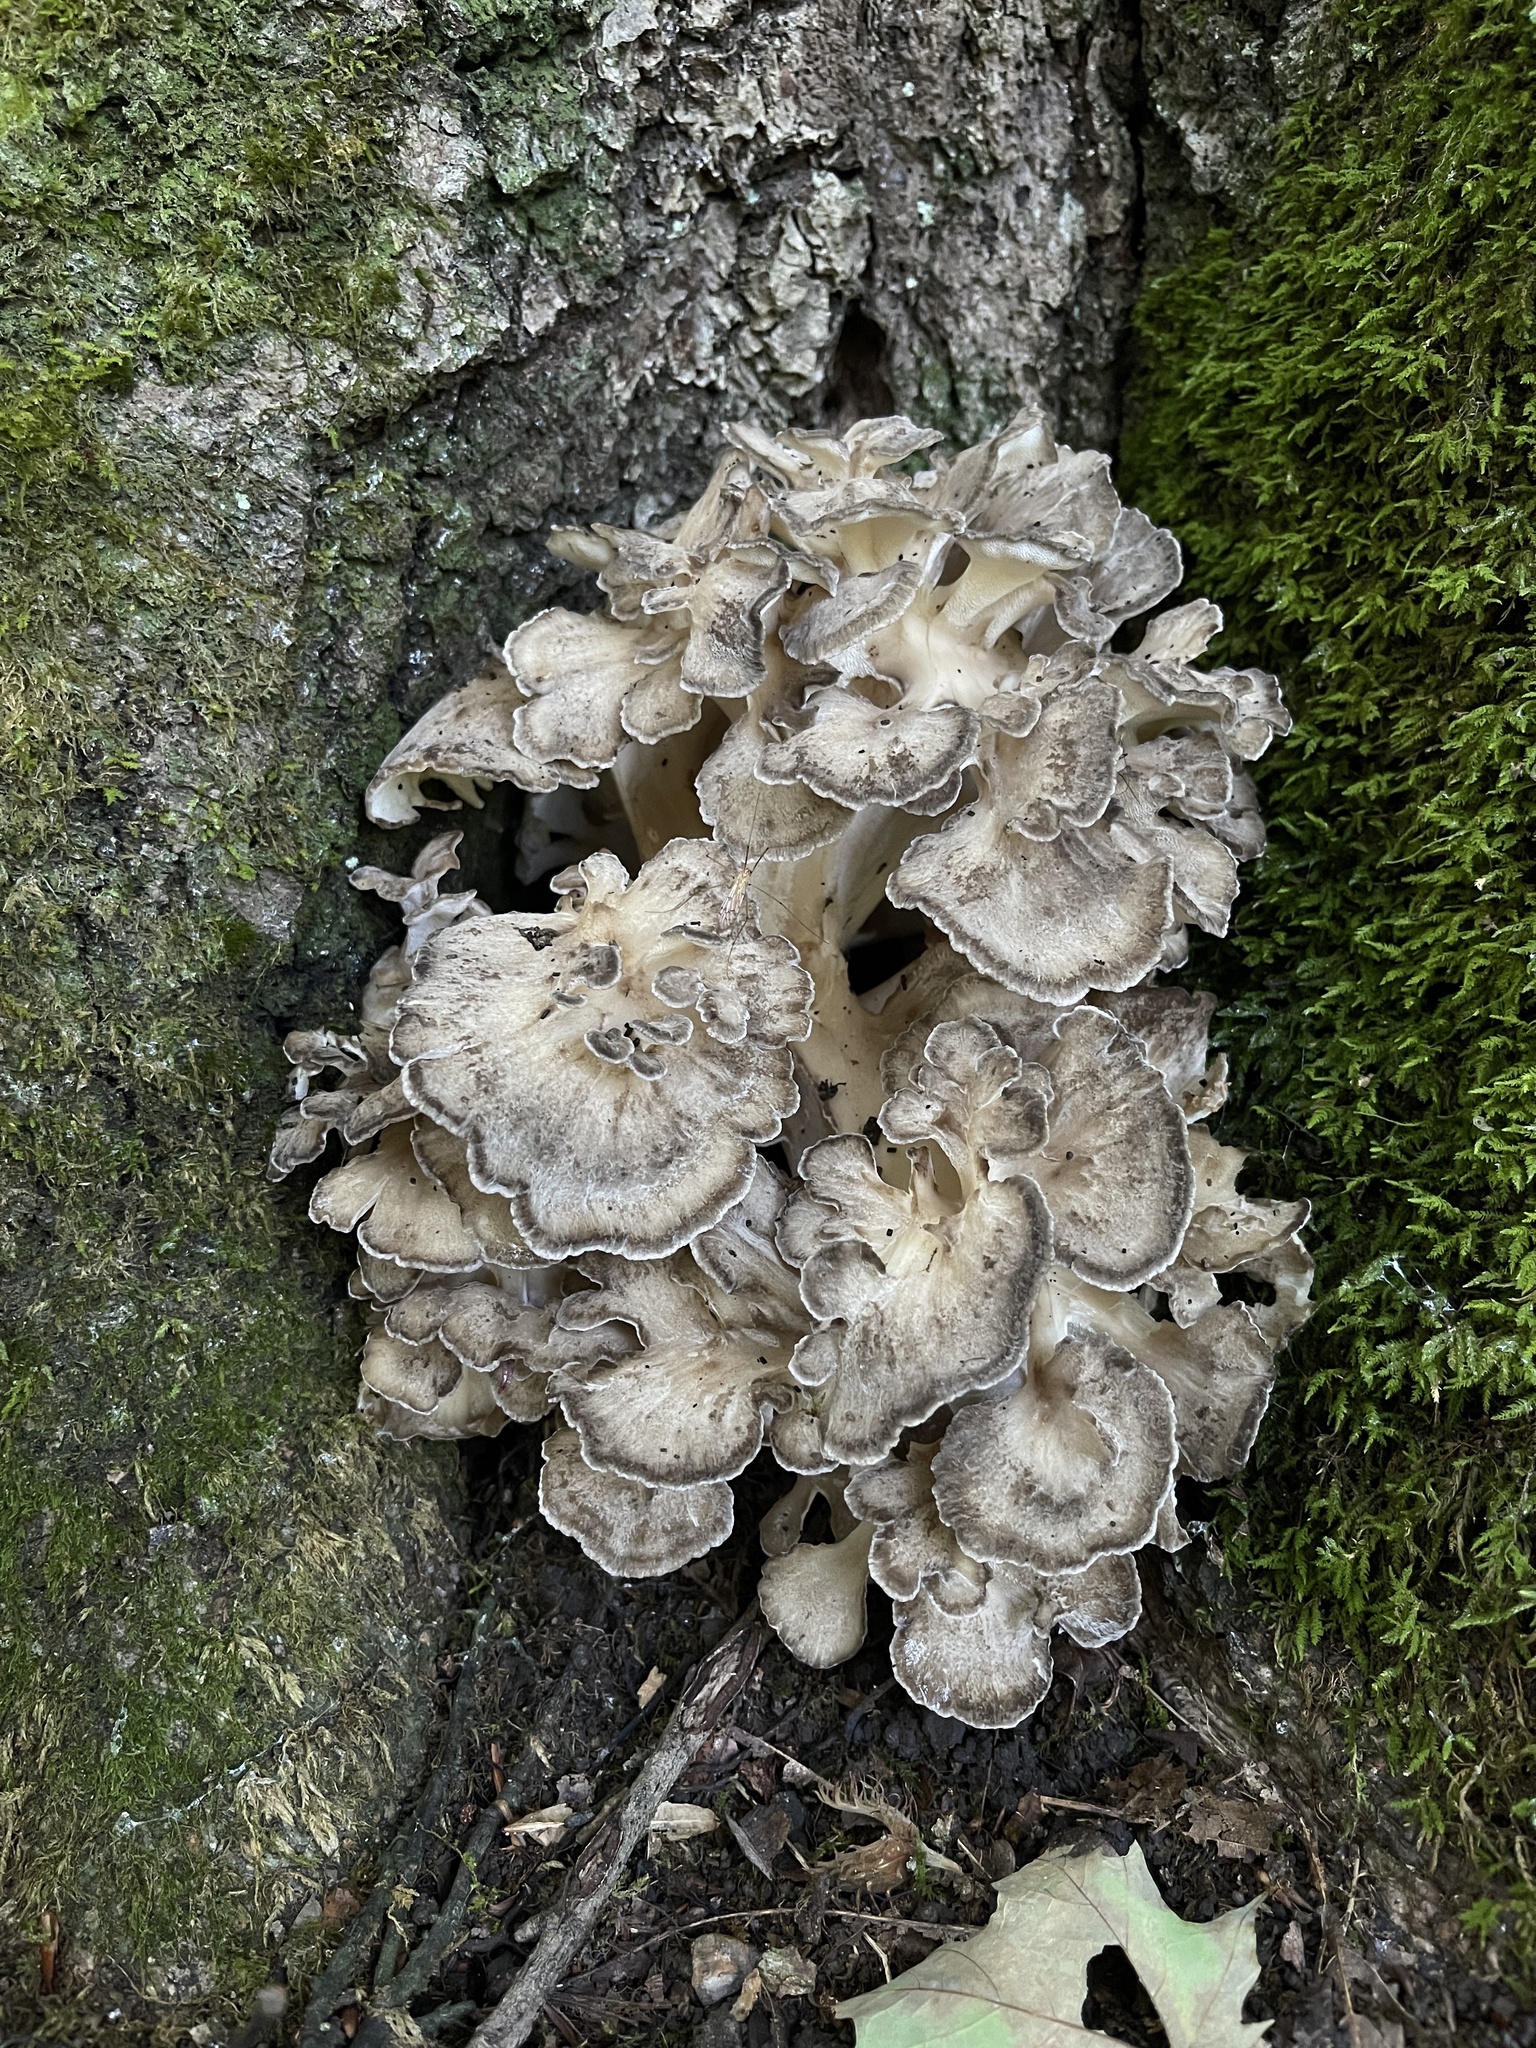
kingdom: Fungi
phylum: Basidiomycota
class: Agaricomycetes
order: Polyporales
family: Grifolaceae
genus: Grifola
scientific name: Grifola frondosa
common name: Hen of the woods
